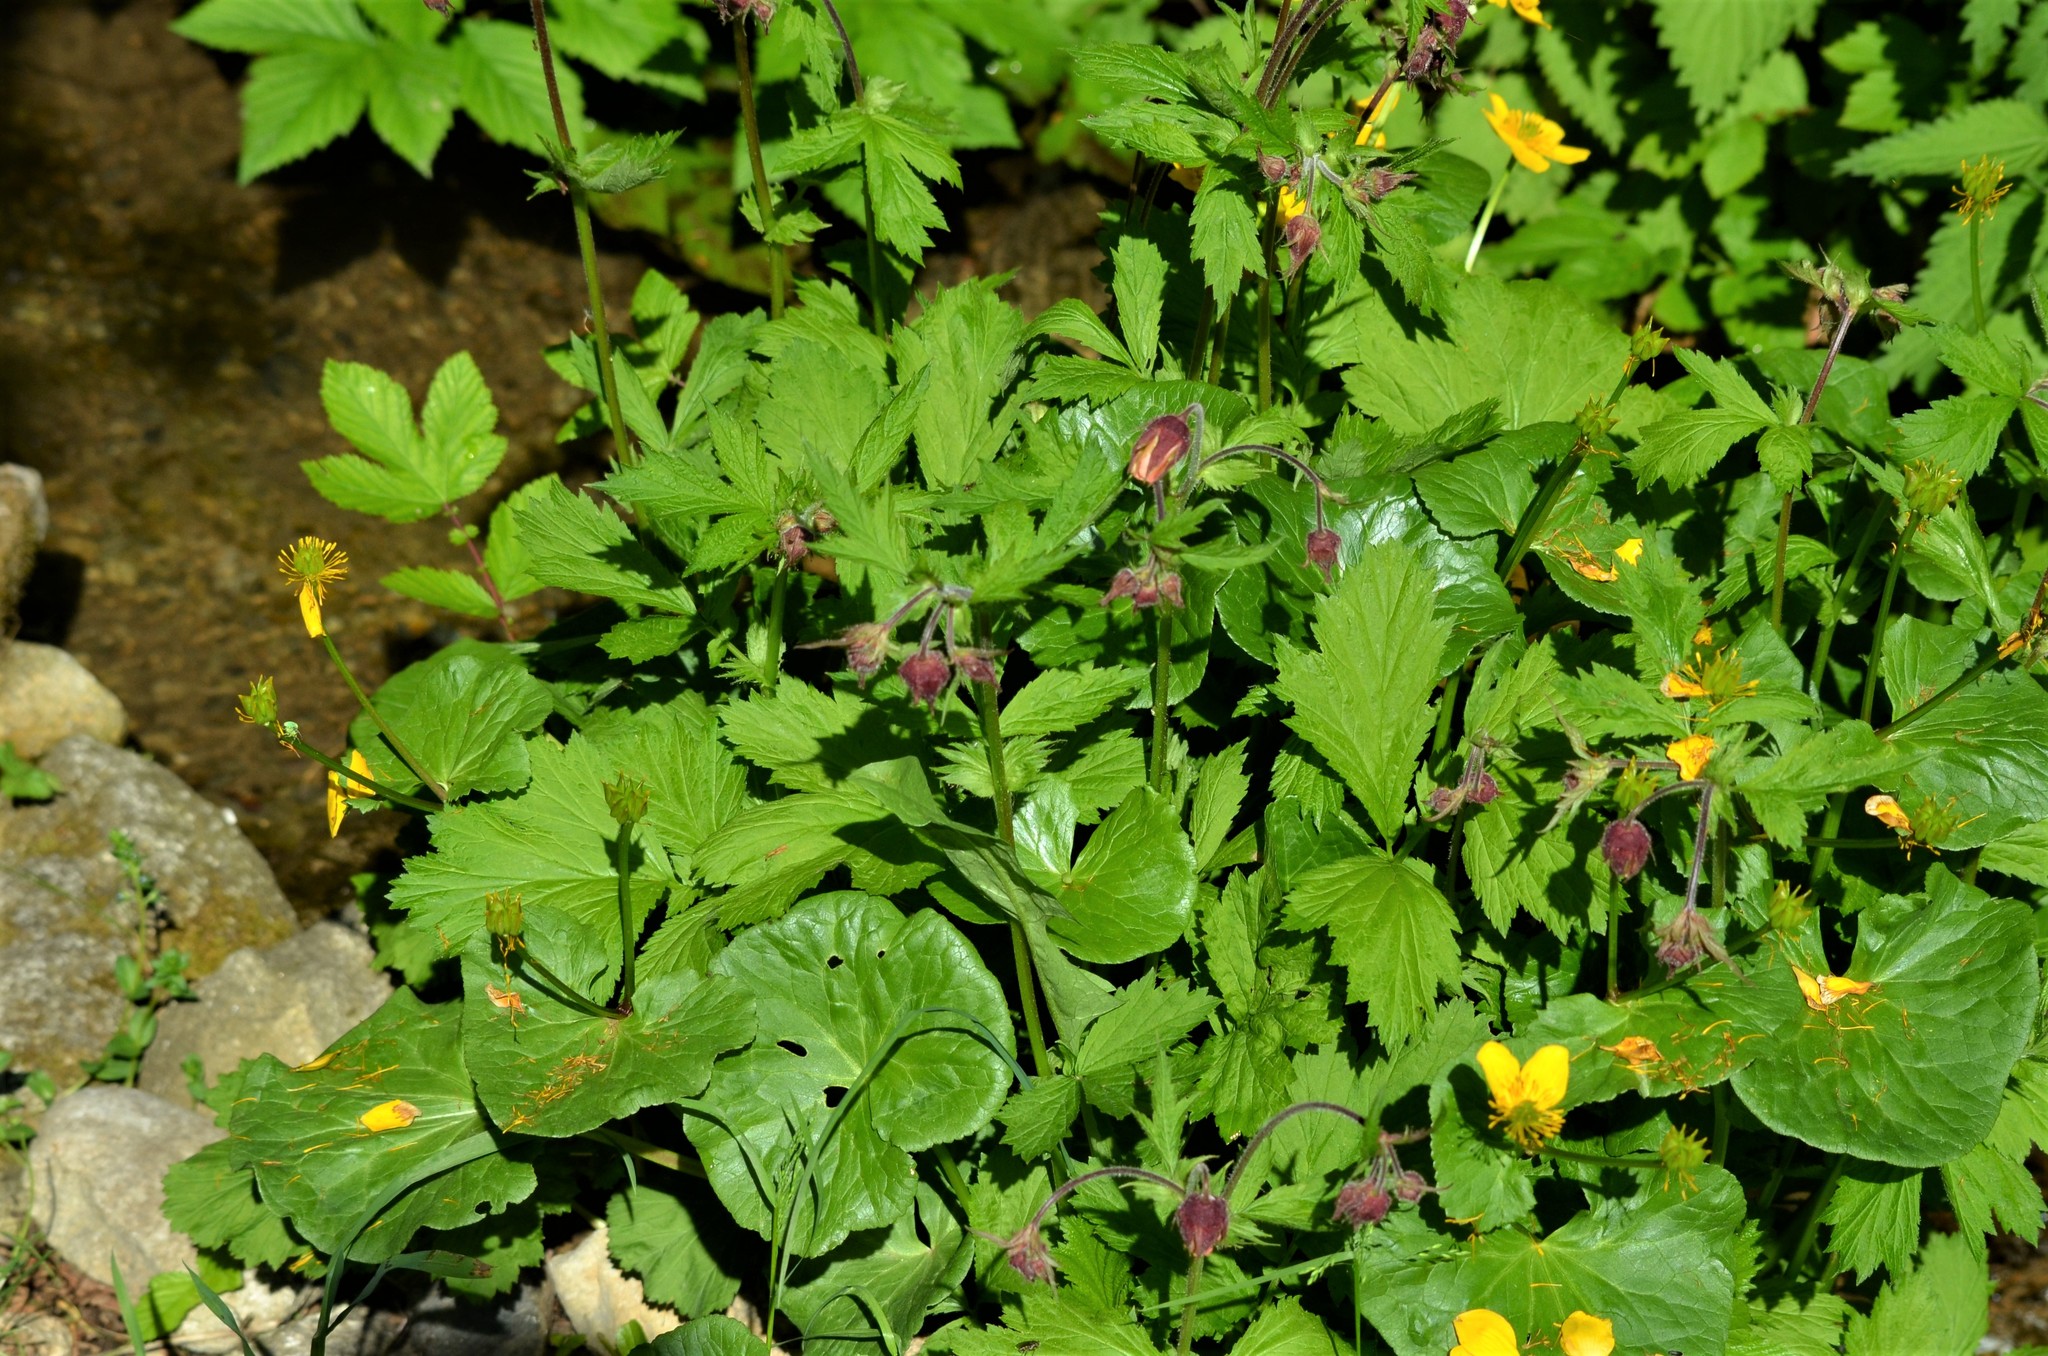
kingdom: Plantae
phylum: Tracheophyta
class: Magnoliopsida
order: Rosales
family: Rosaceae
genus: Geum
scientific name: Geum rivale
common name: Water avens
